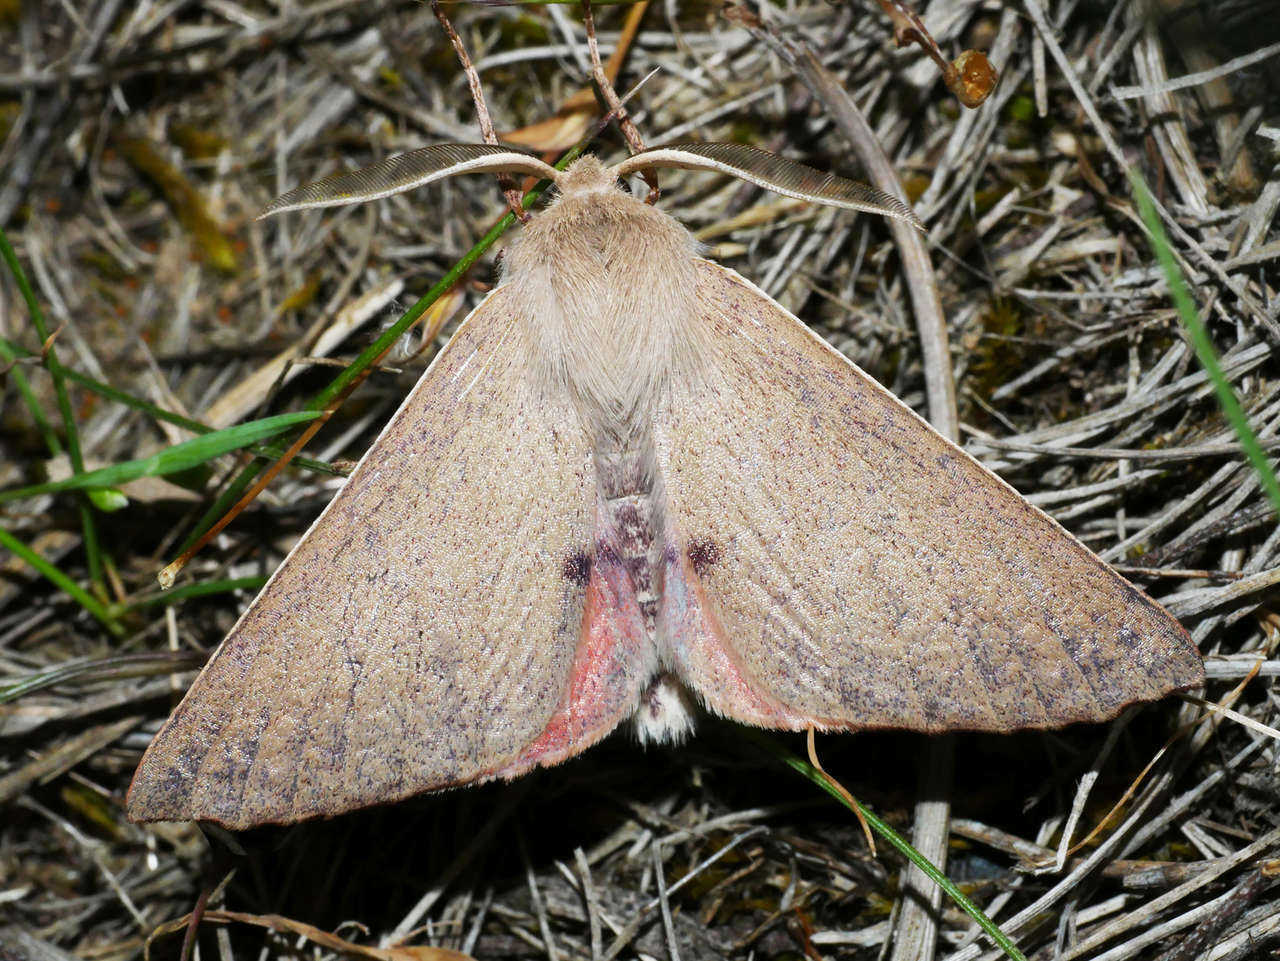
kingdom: Animalia
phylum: Arthropoda
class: Insecta
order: Lepidoptera
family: Geometridae
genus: Arhodia
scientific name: Arhodia lasiocamparia
